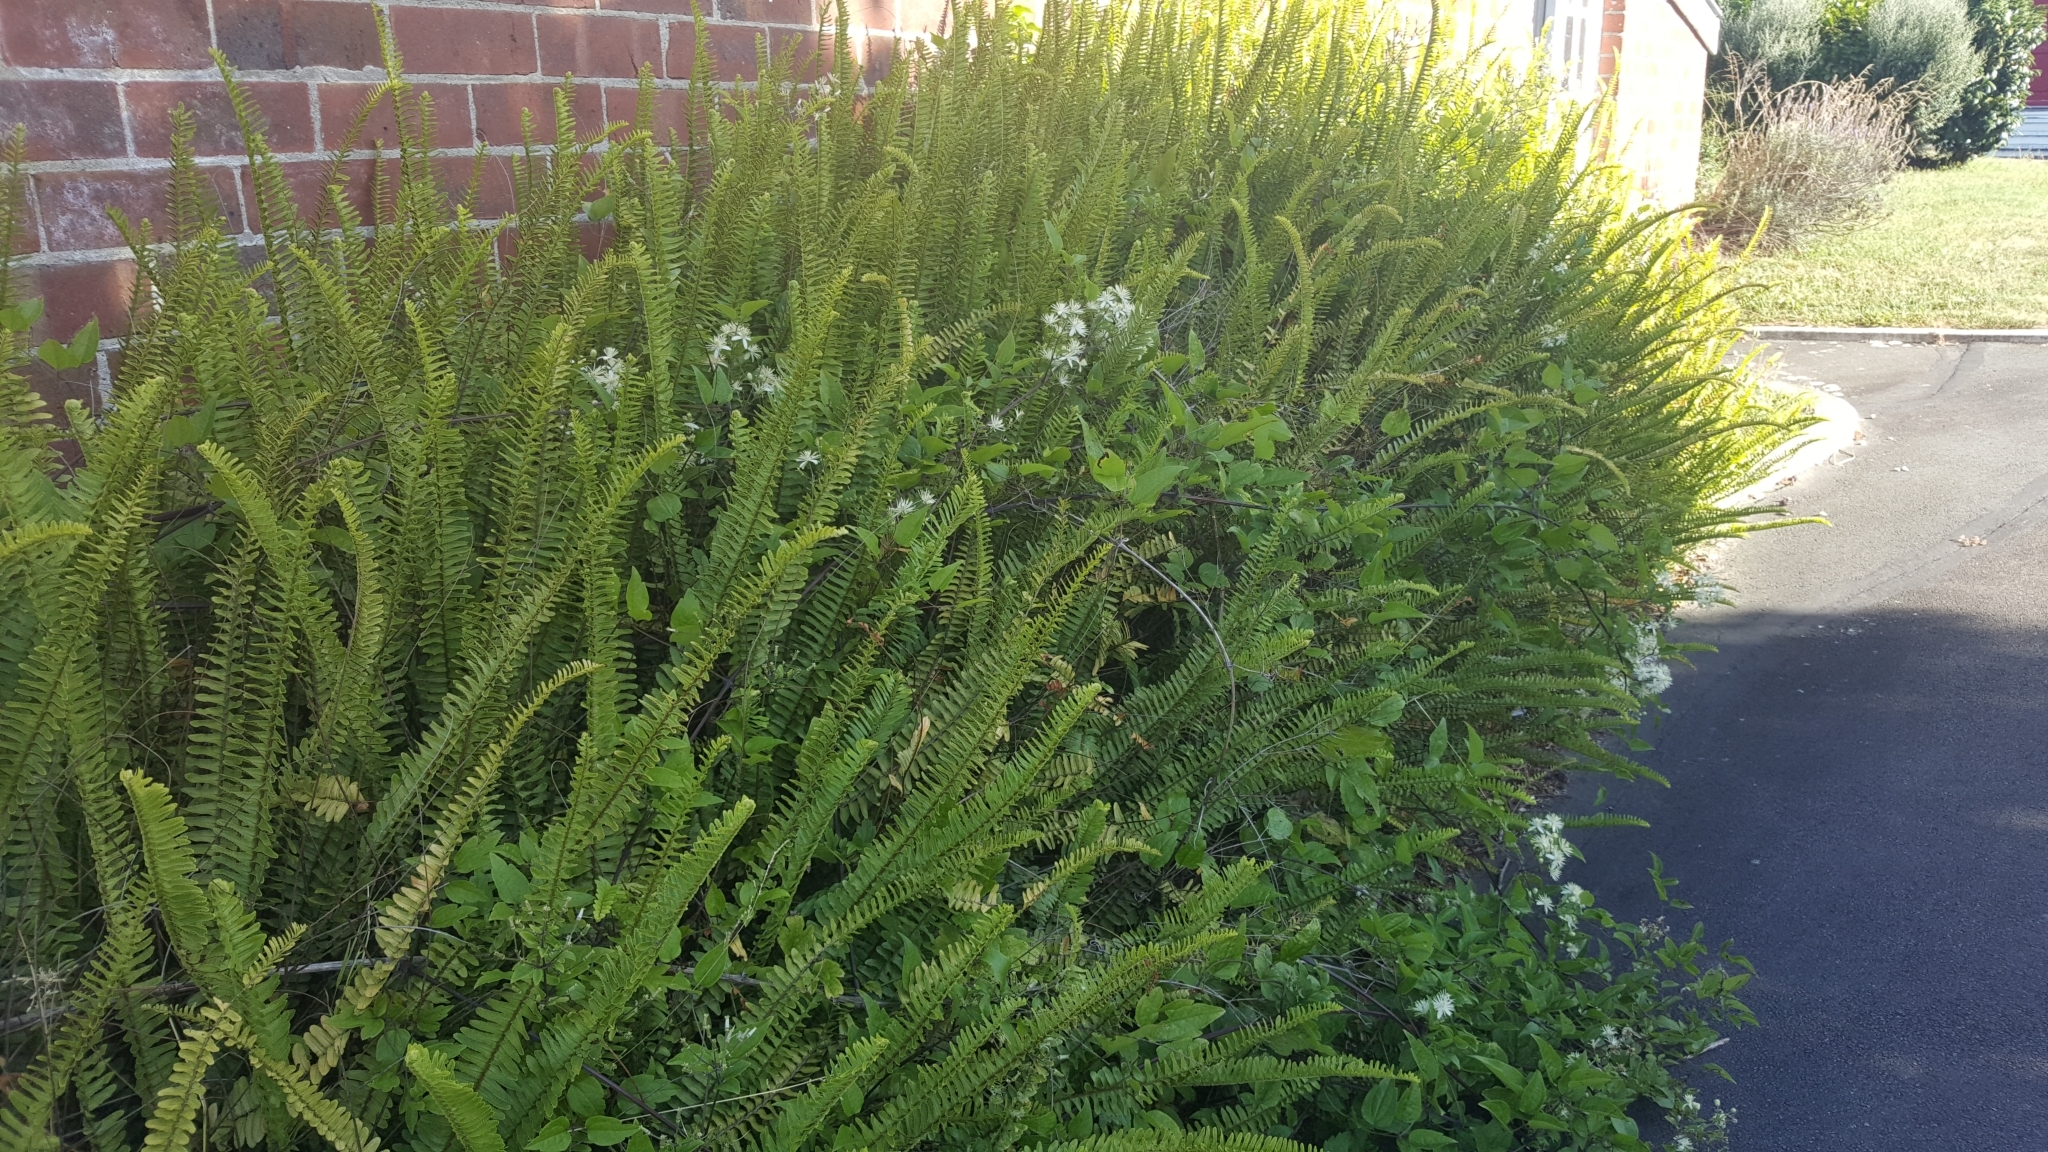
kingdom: Plantae
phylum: Tracheophyta
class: Magnoliopsida
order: Ranunculales
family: Ranunculaceae
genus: Clematis
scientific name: Clematis vitalba
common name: Evergreen clematis
